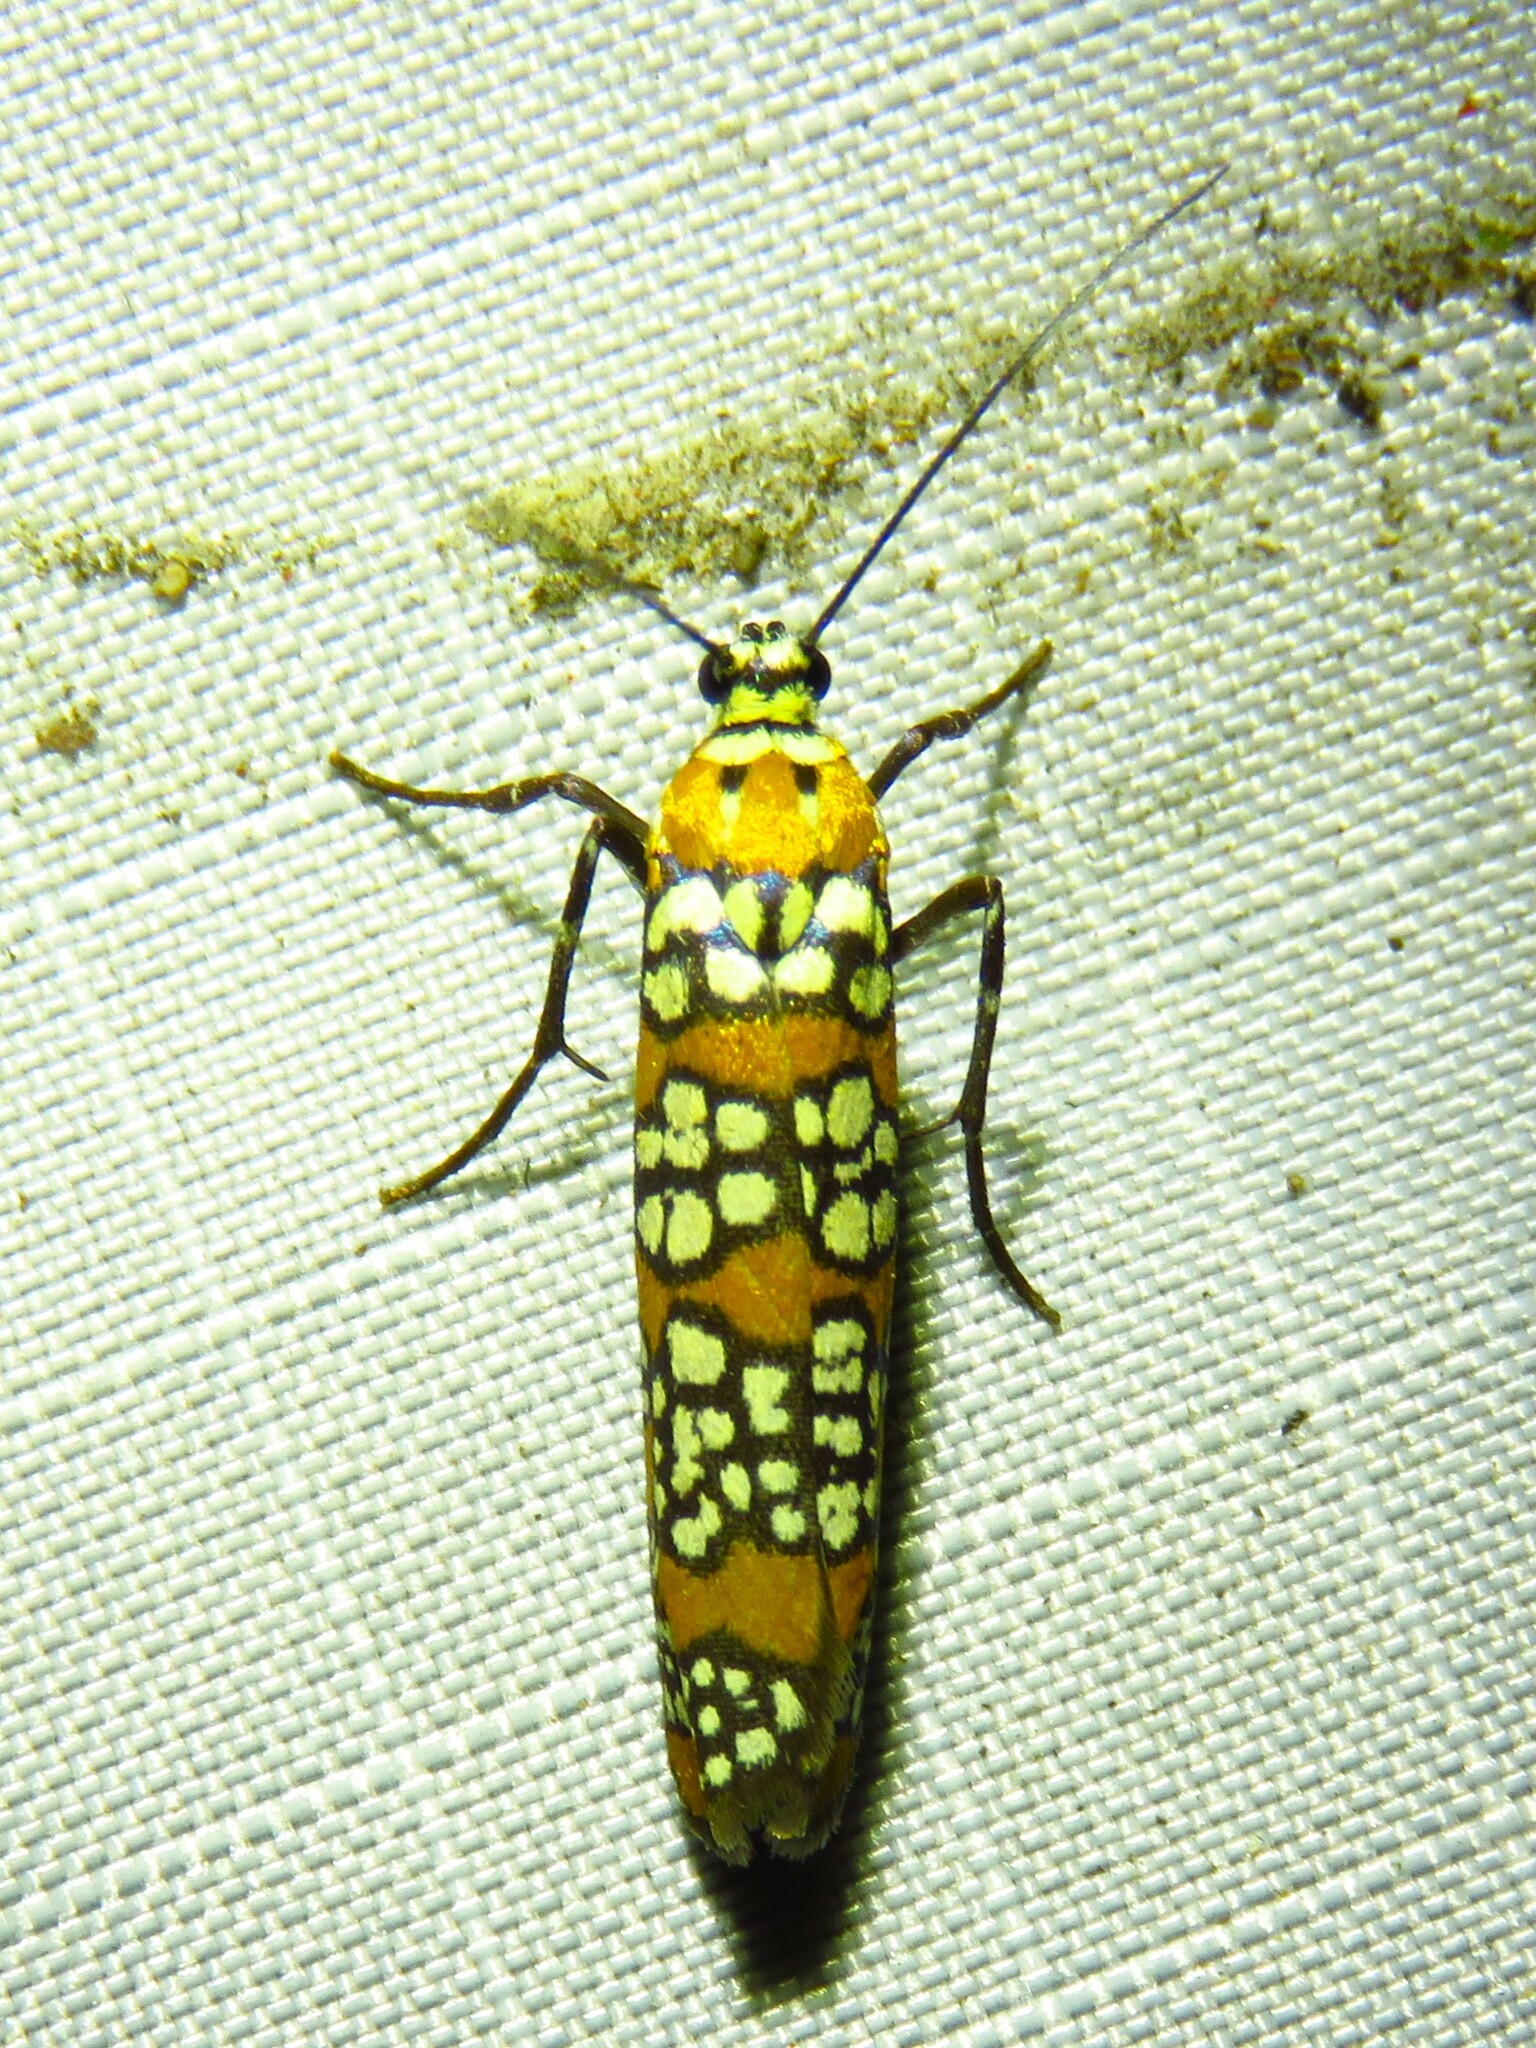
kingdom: Animalia
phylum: Arthropoda
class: Insecta
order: Lepidoptera
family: Attevidae
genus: Atteva
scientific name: Atteva punctella
